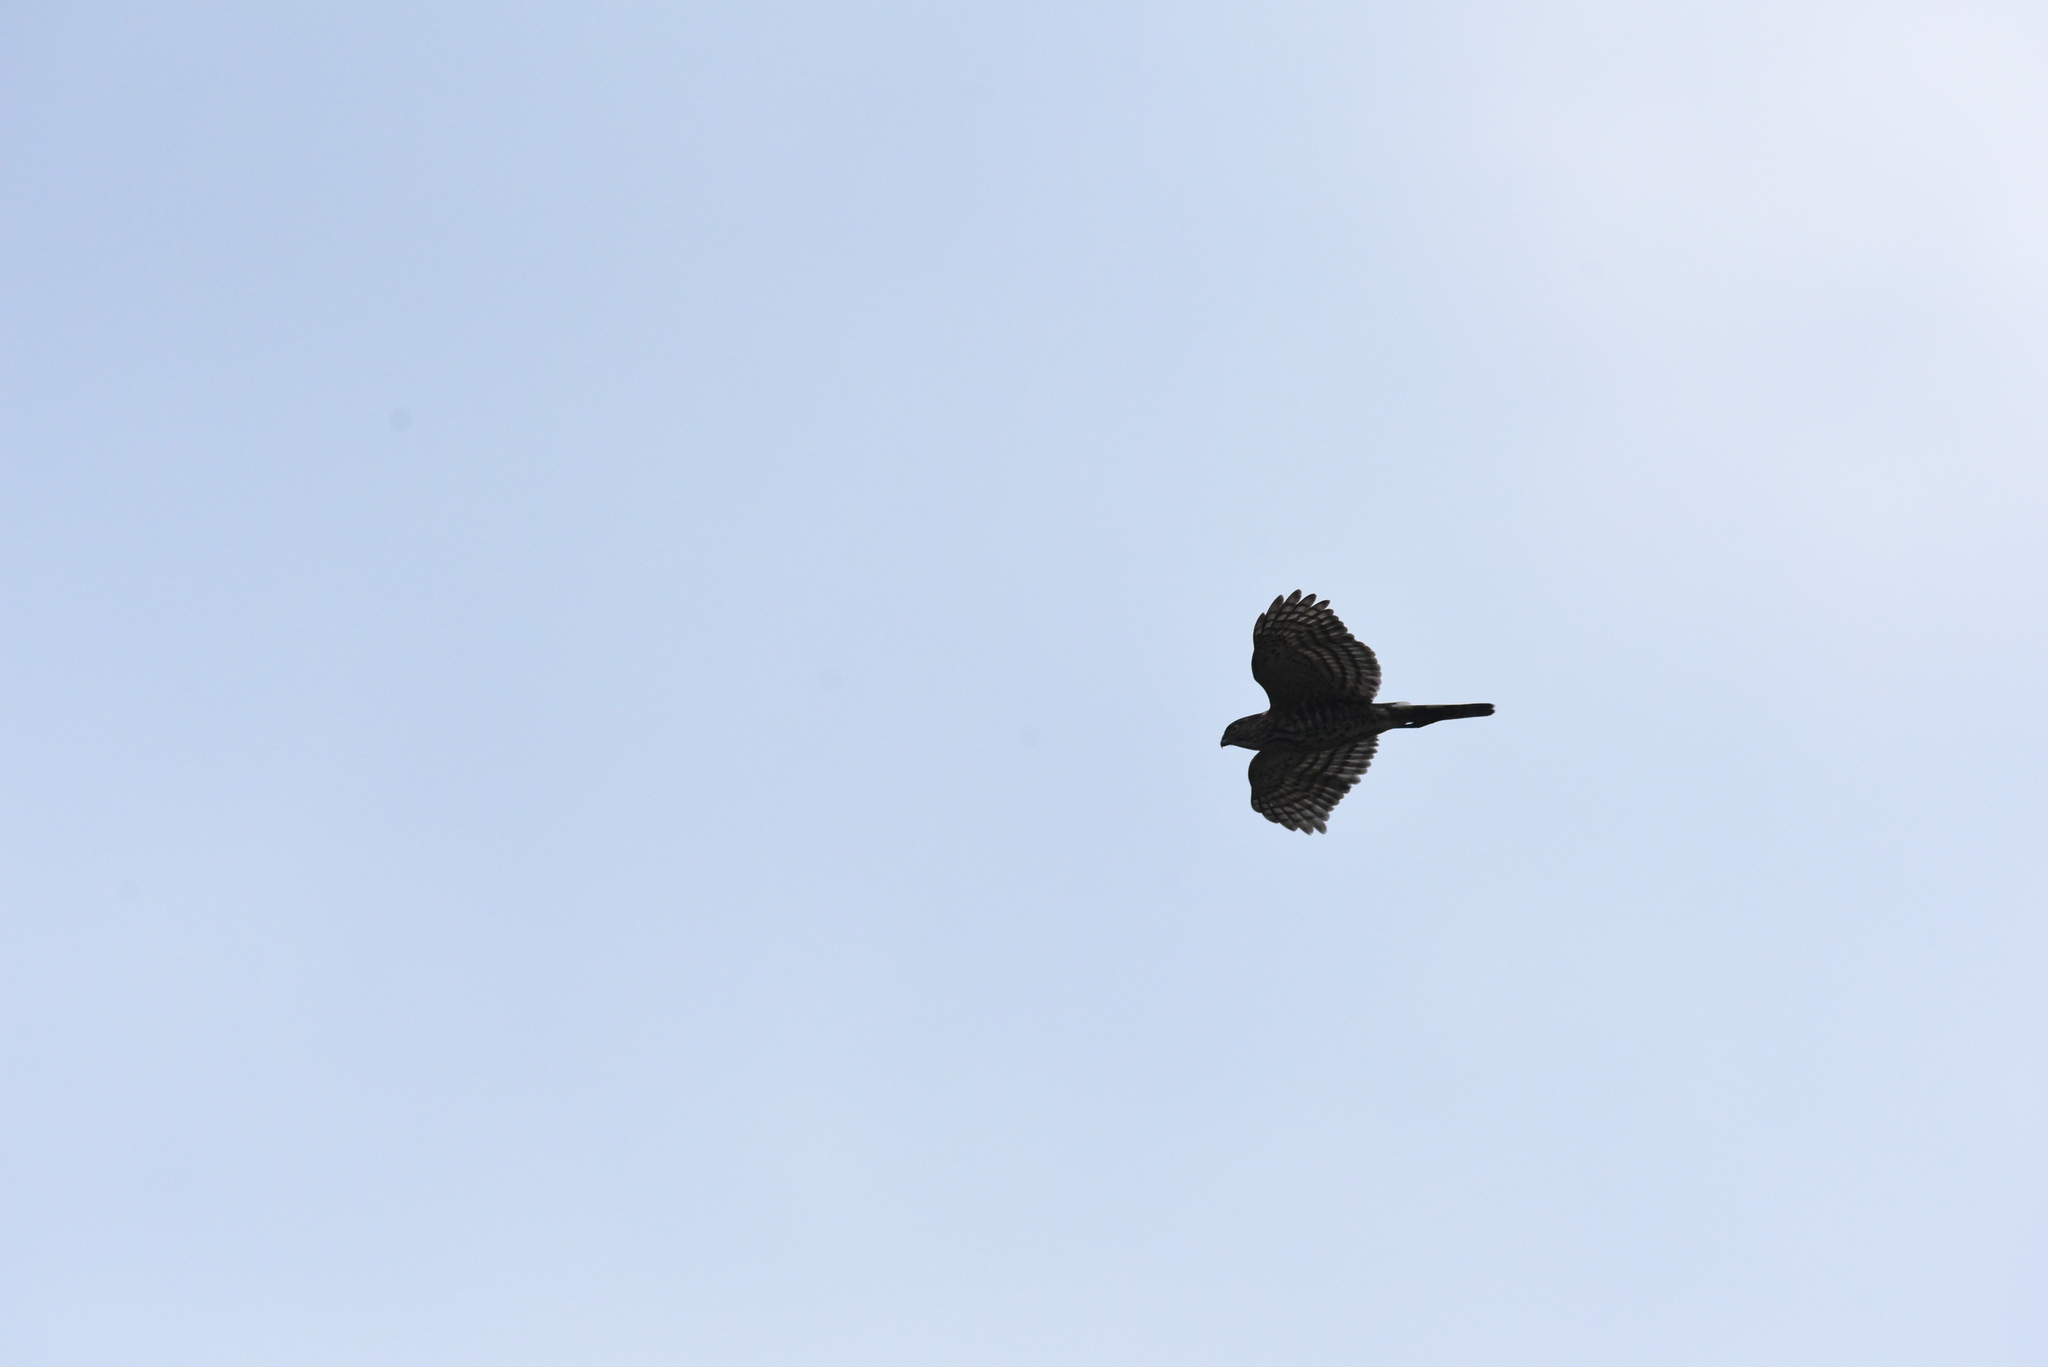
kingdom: Animalia
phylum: Chordata
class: Aves
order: Accipitriformes
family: Accipitridae
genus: Accipiter
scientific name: Accipiter virgatus
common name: Besra
